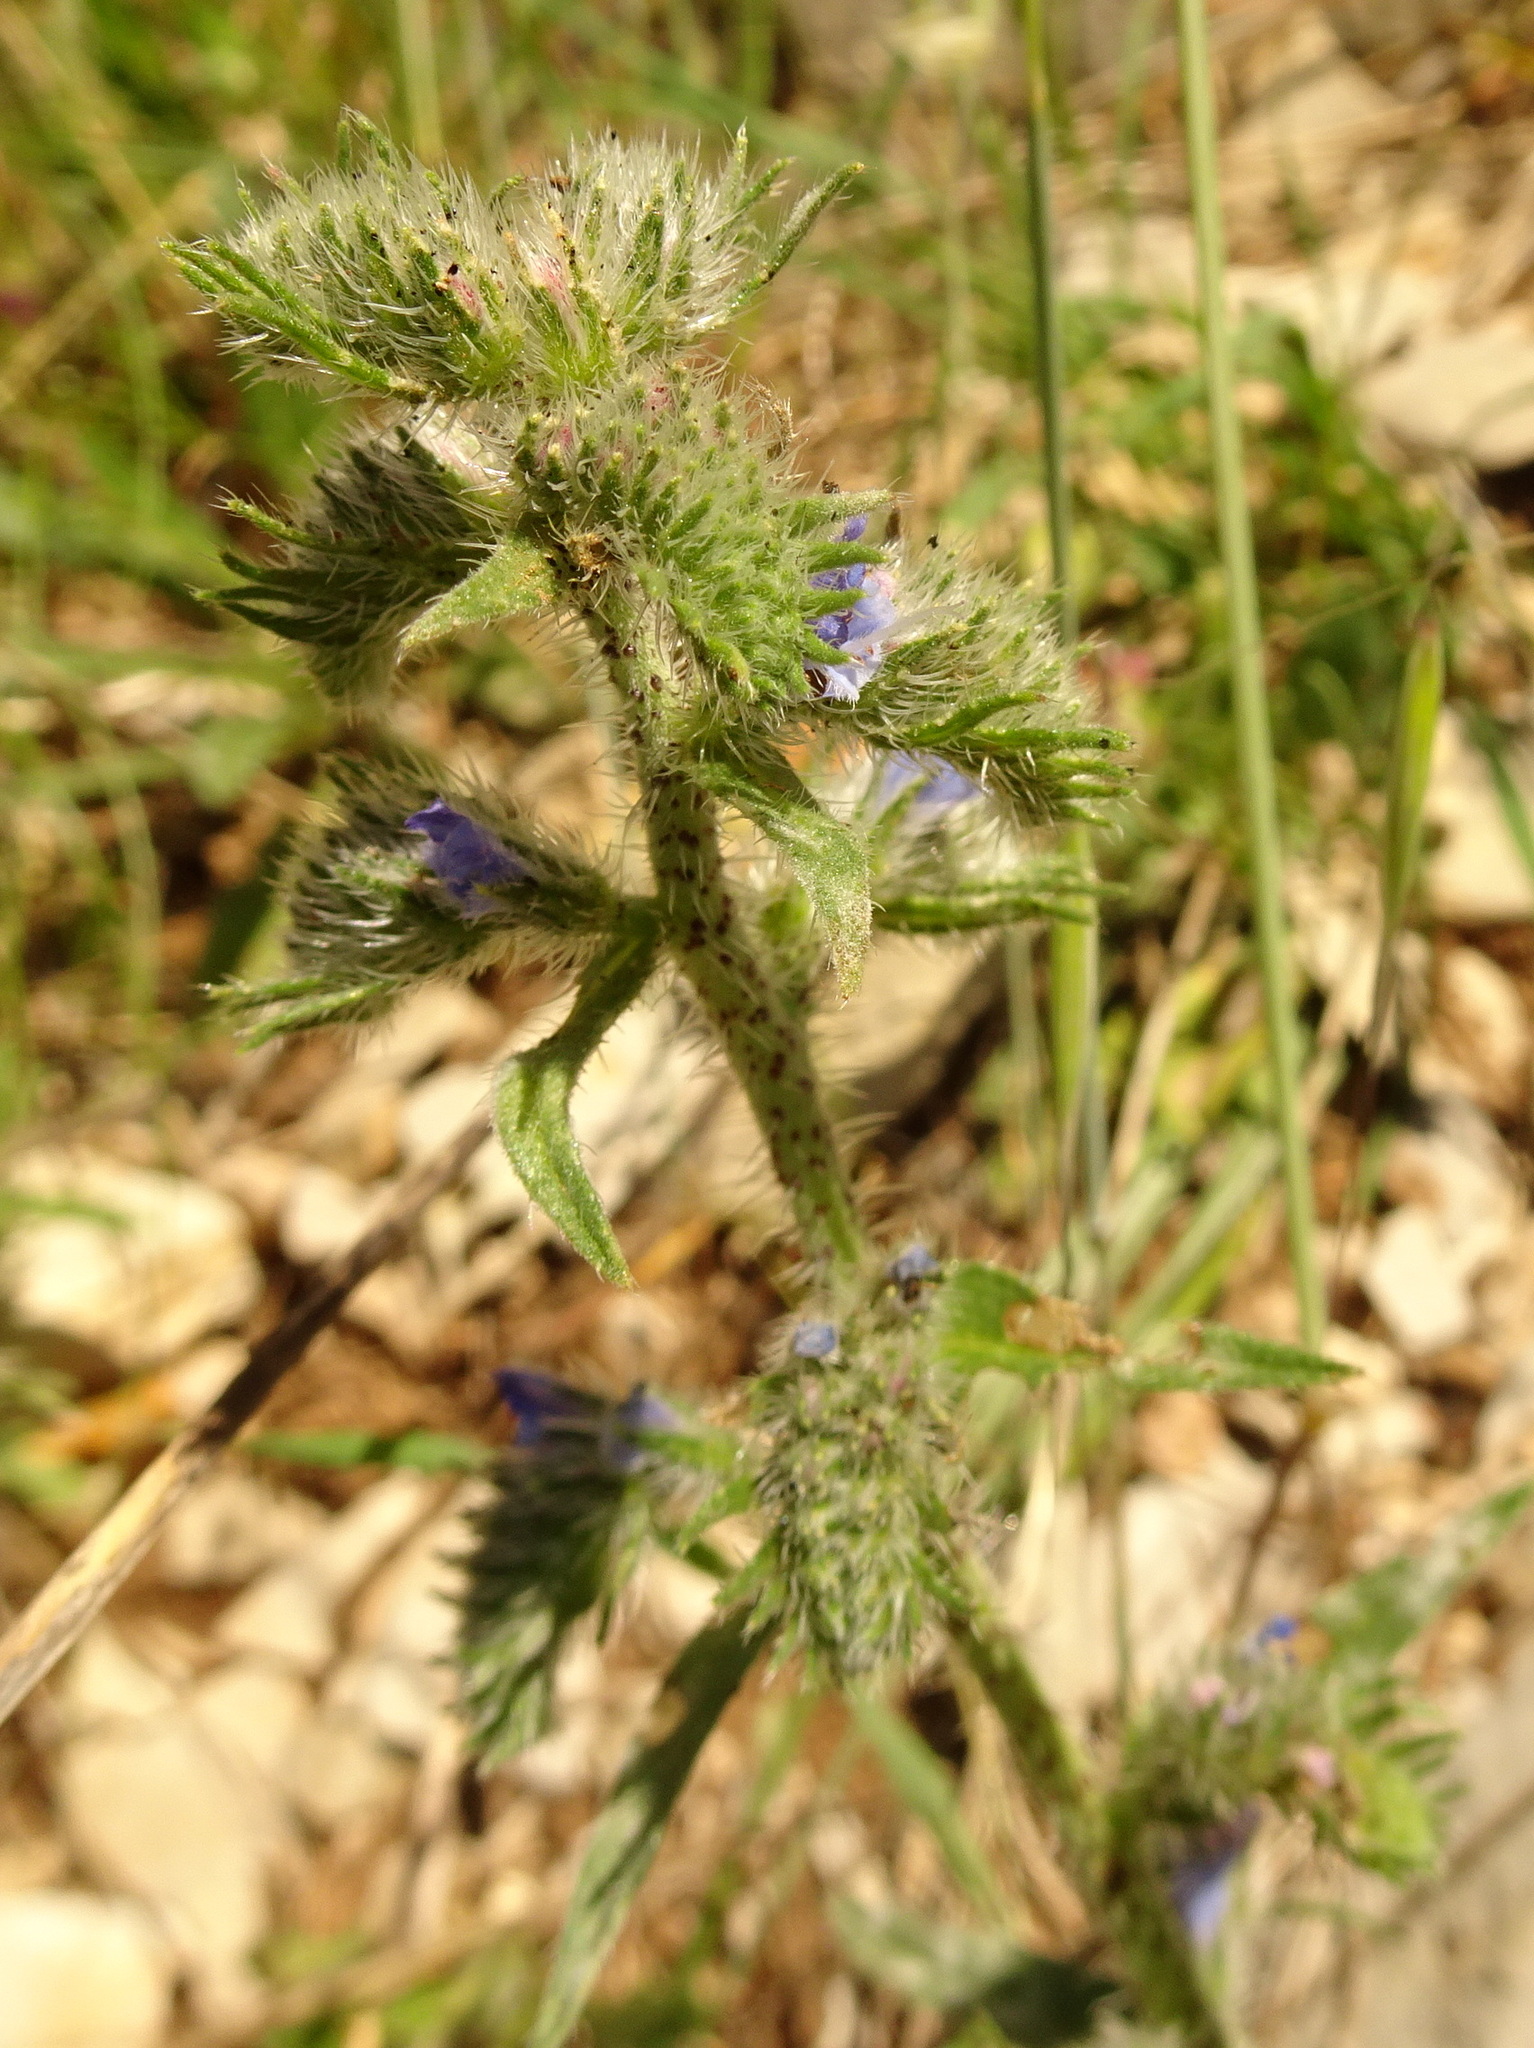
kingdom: Plantae
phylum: Tracheophyta
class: Magnoliopsida
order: Boraginales
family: Boraginaceae
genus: Echium
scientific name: Echium vulgare
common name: Common viper's bugloss
